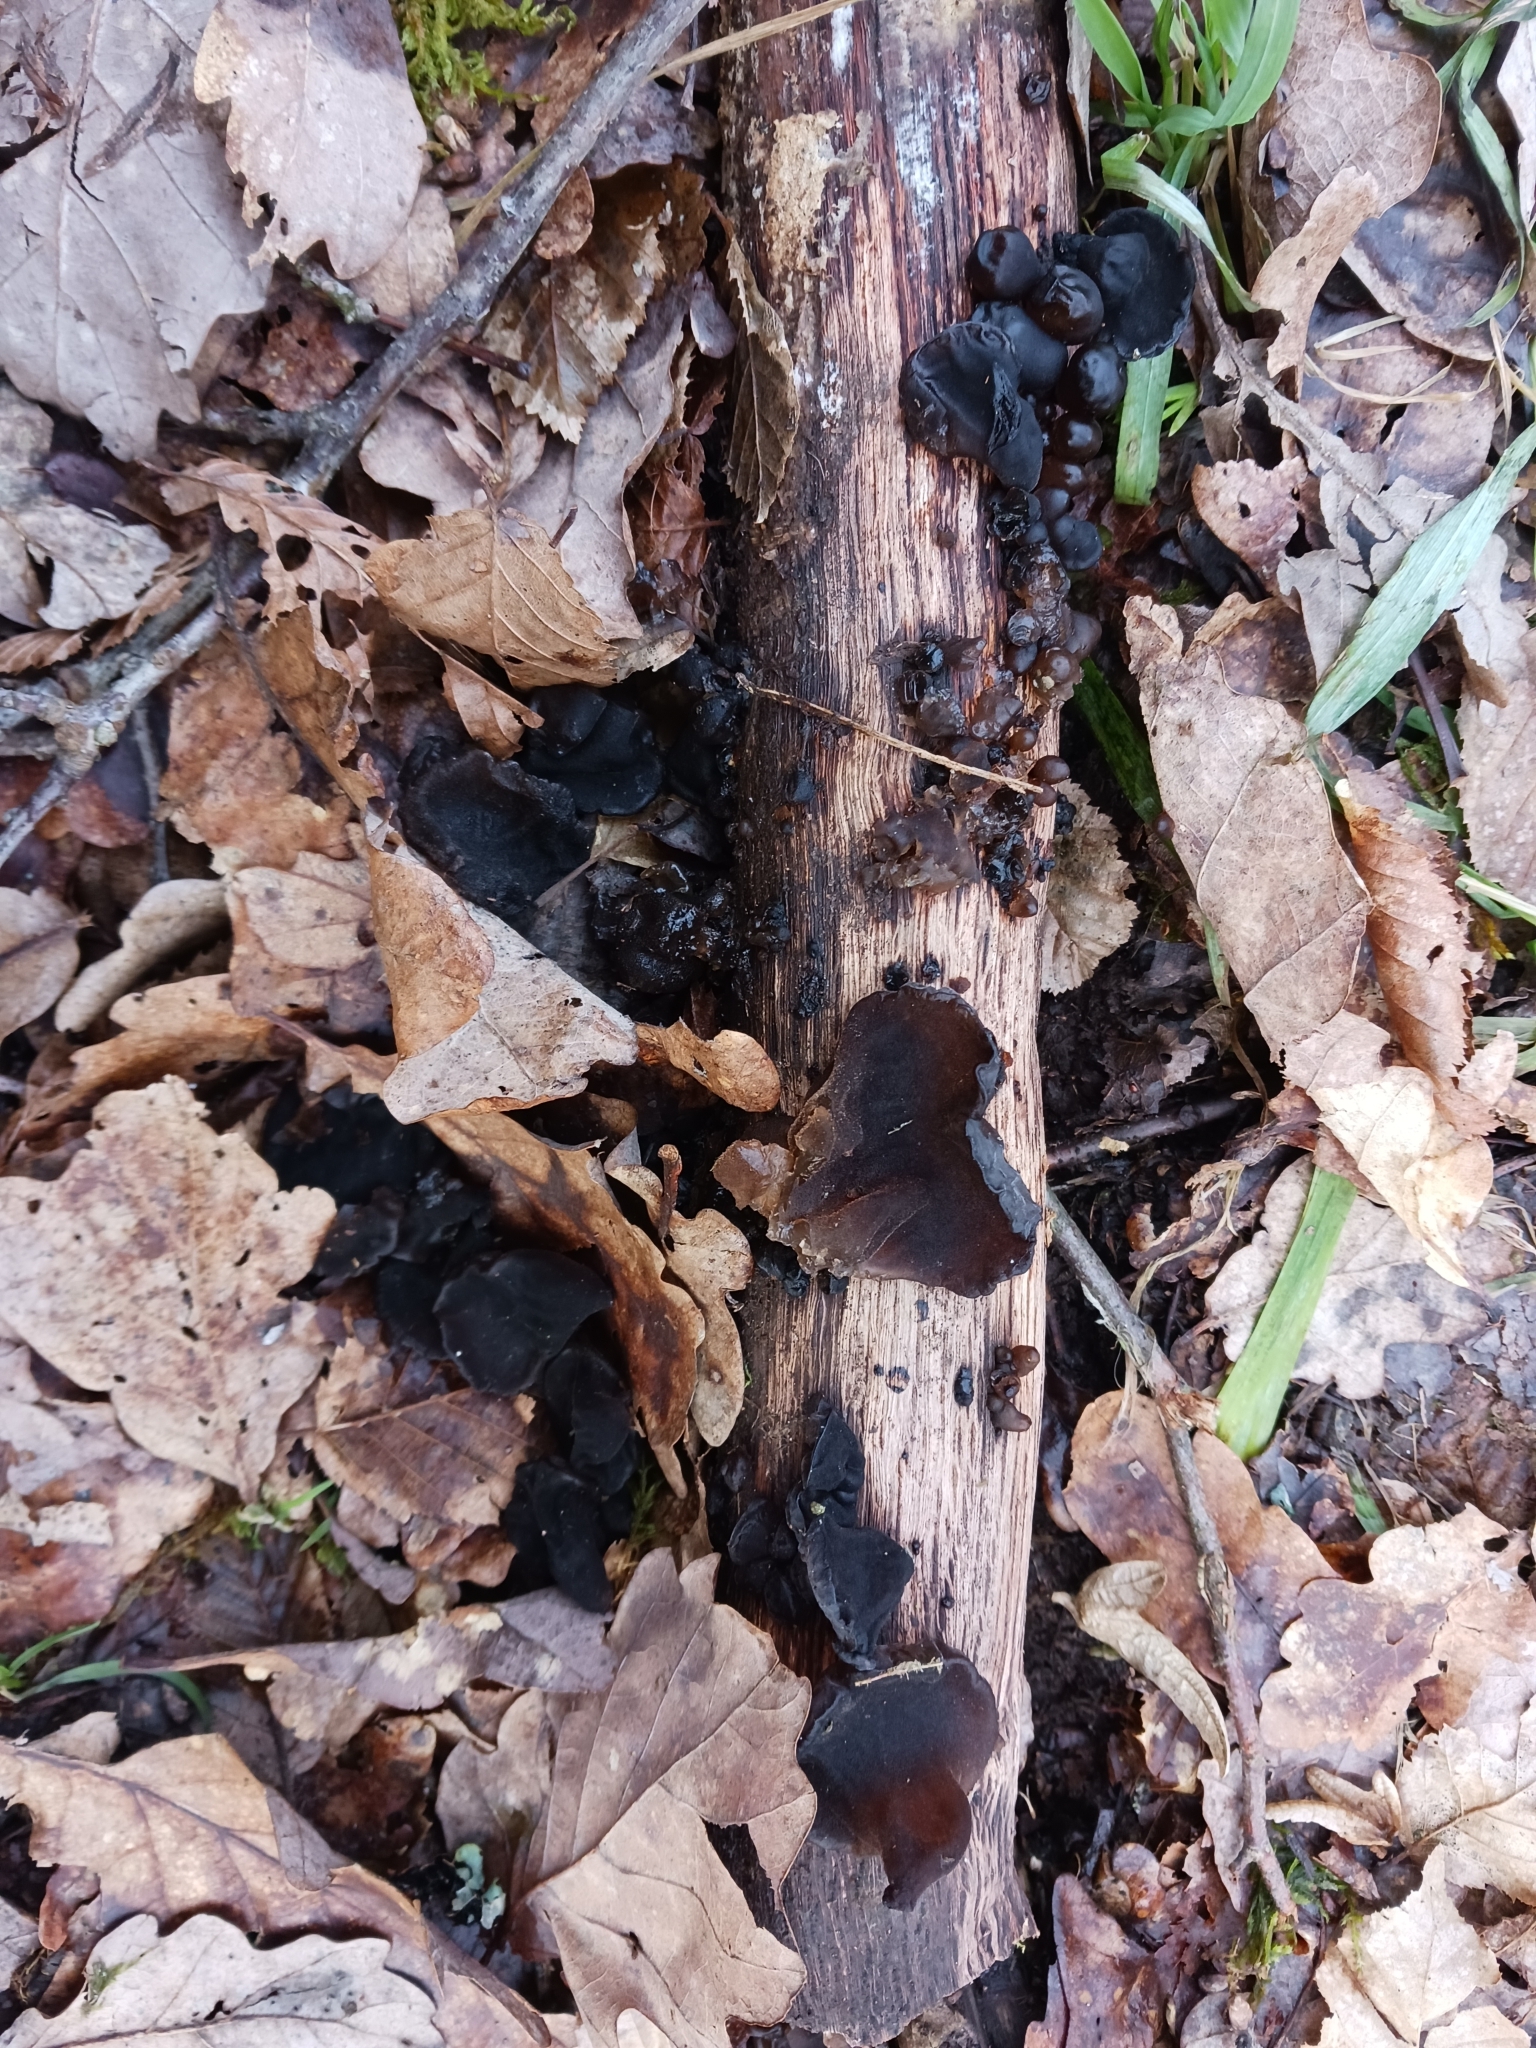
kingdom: Fungi
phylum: Basidiomycota
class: Agaricomycetes
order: Auriculariales
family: Auriculariaceae
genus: Exidia
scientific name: Exidia glandulosa
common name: Witches' butter
